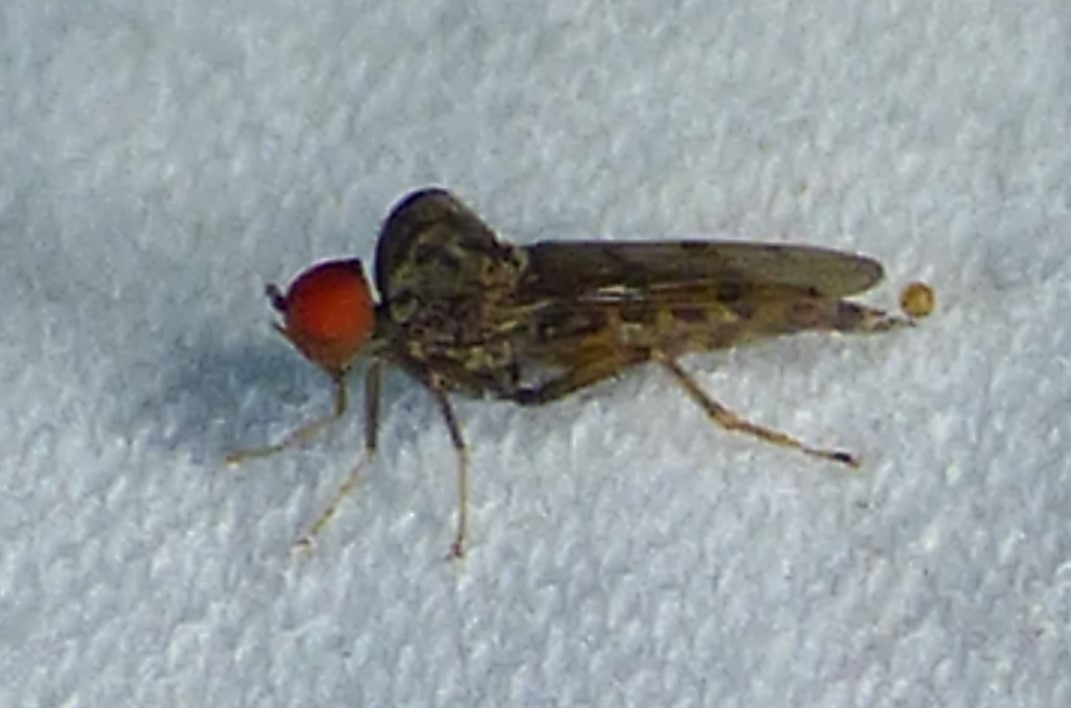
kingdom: Animalia
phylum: Arthropoda
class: Insecta
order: Diptera
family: Hybotidae
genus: Syneches
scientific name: Syneches simplex
